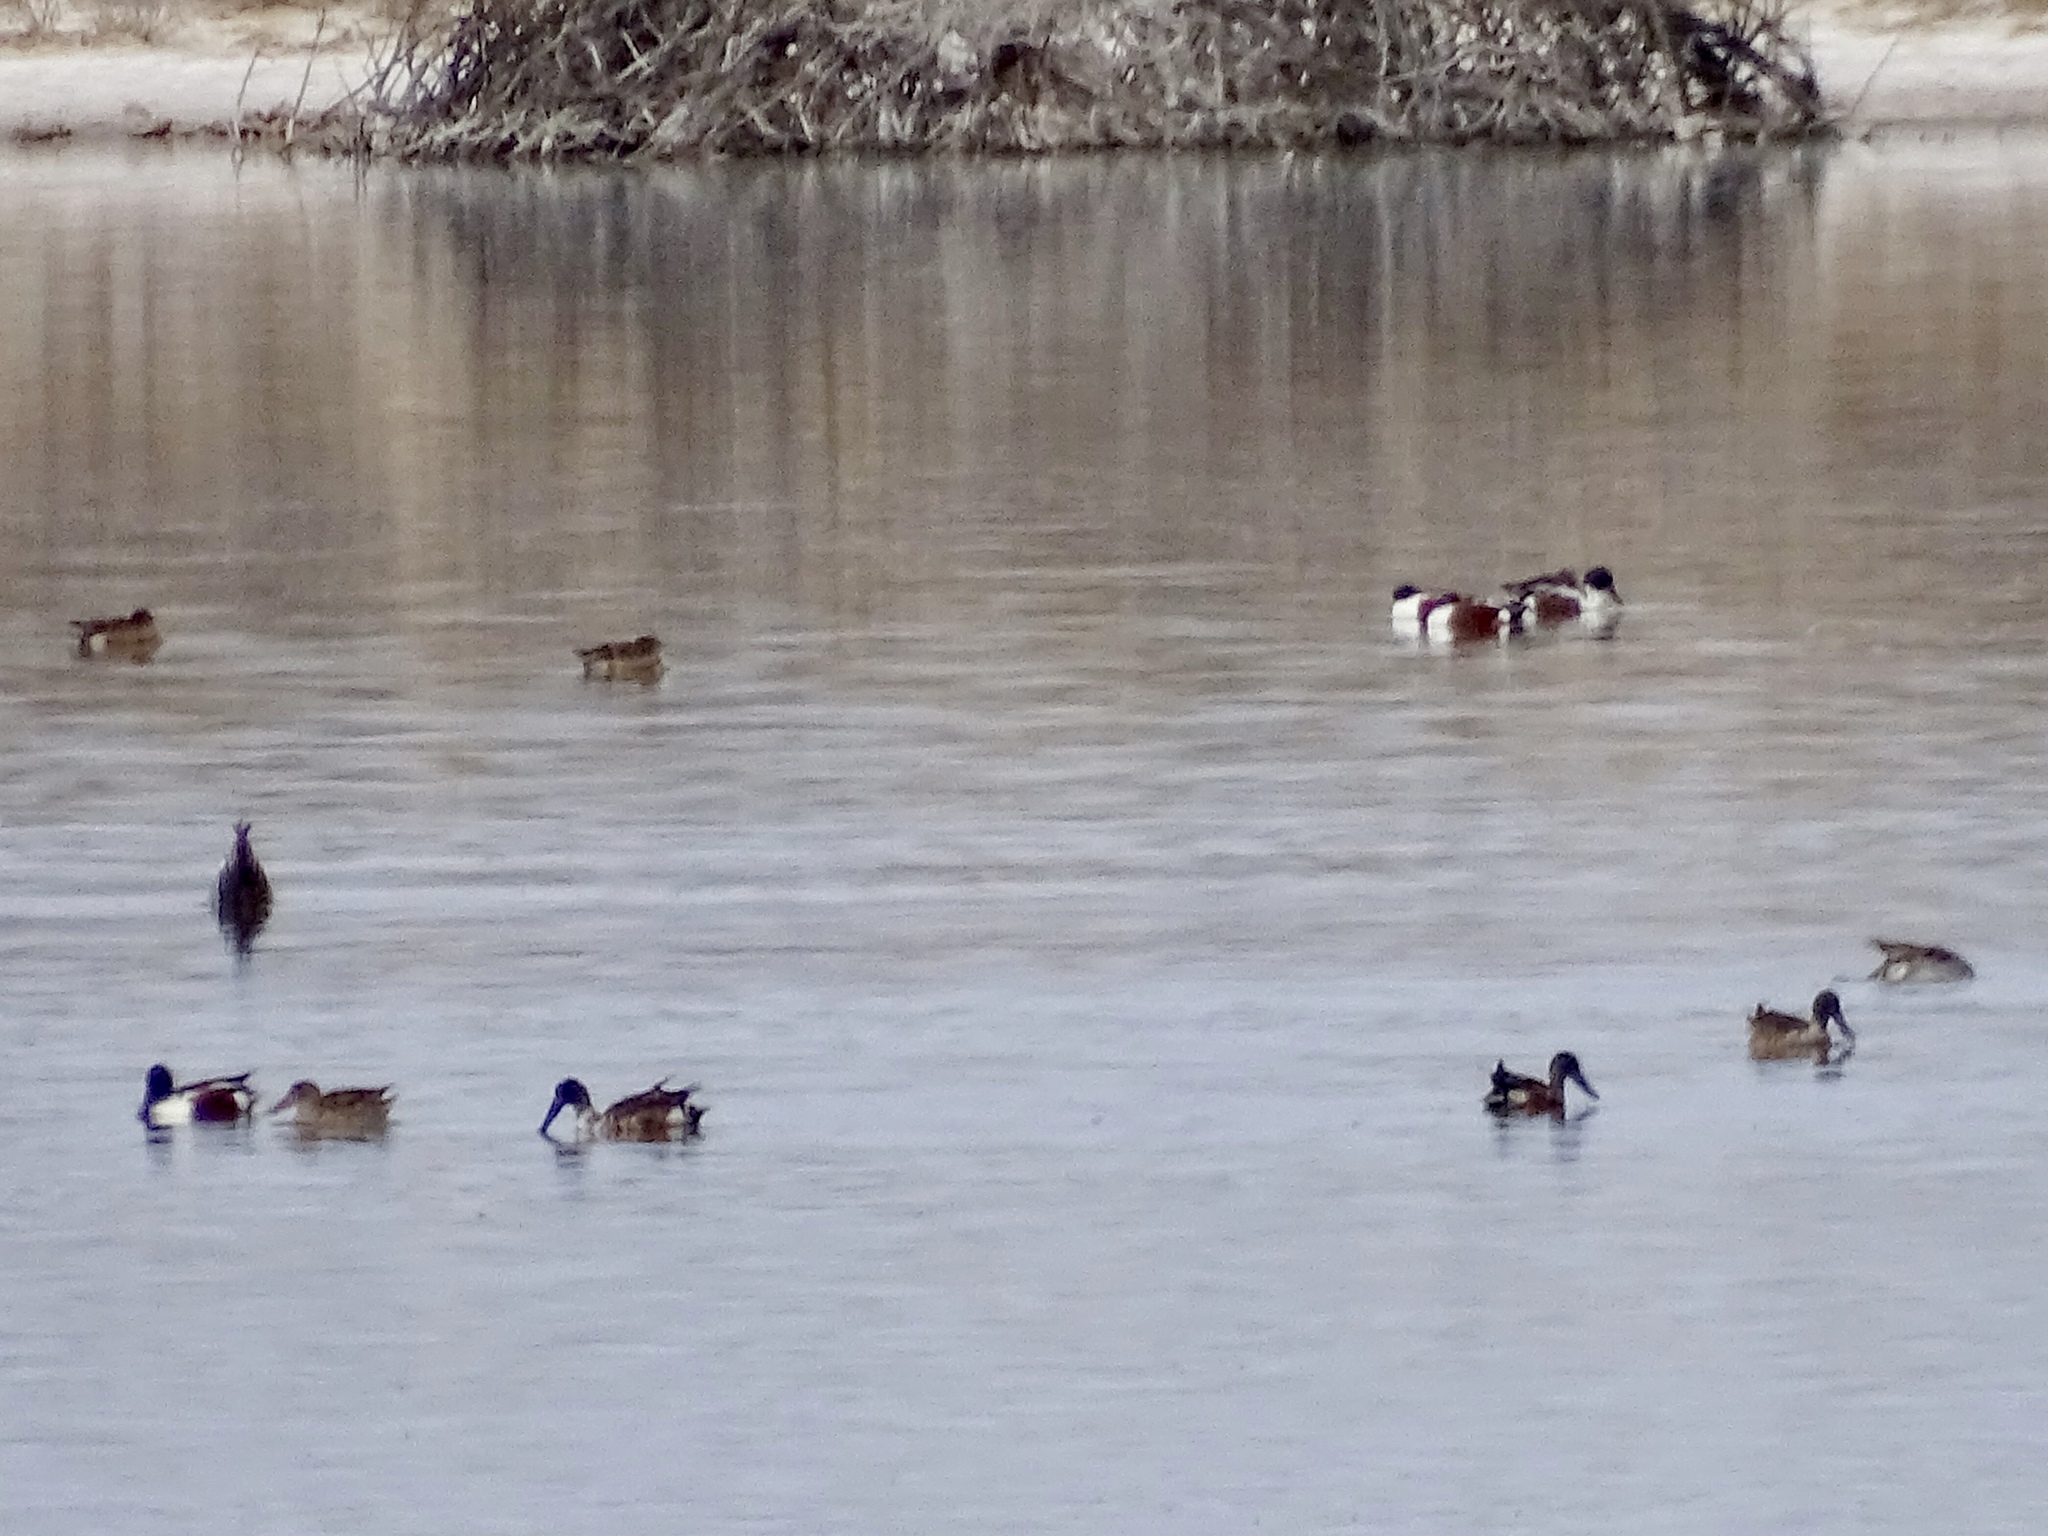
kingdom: Animalia
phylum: Chordata
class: Aves
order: Anseriformes
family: Anatidae
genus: Spatula
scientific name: Spatula clypeata
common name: Northern shoveler
